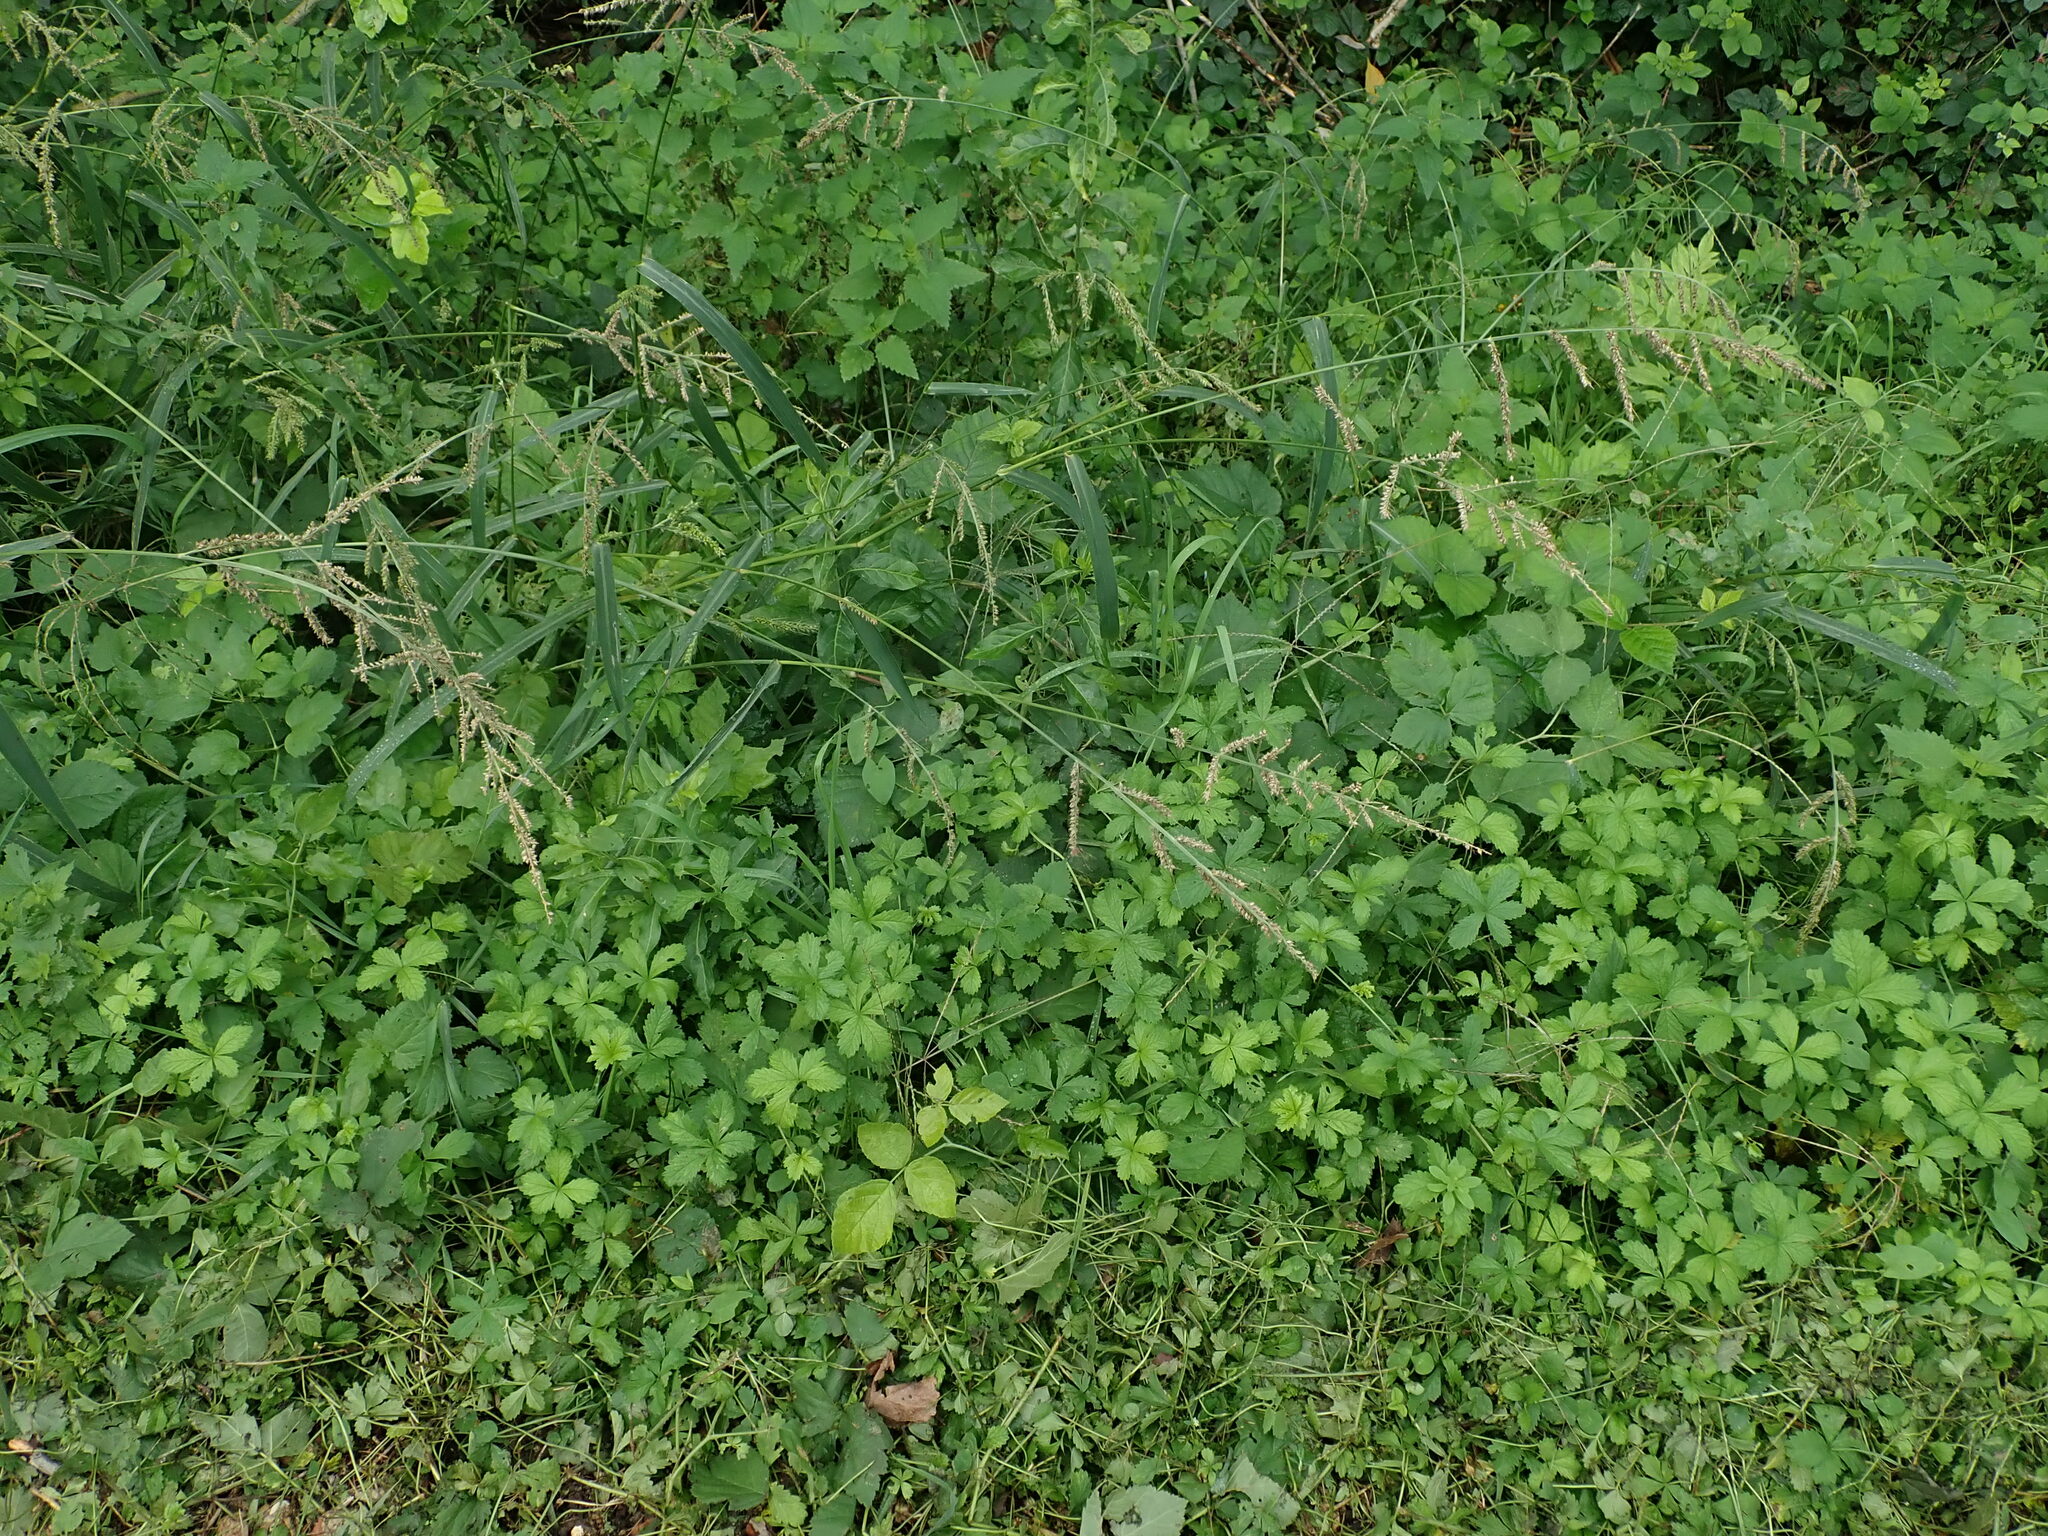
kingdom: Plantae
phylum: Tracheophyta
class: Liliopsida
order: Poales
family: Poaceae
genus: Echinochloa
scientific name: Echinochloa crus-galli
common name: Cockspur
